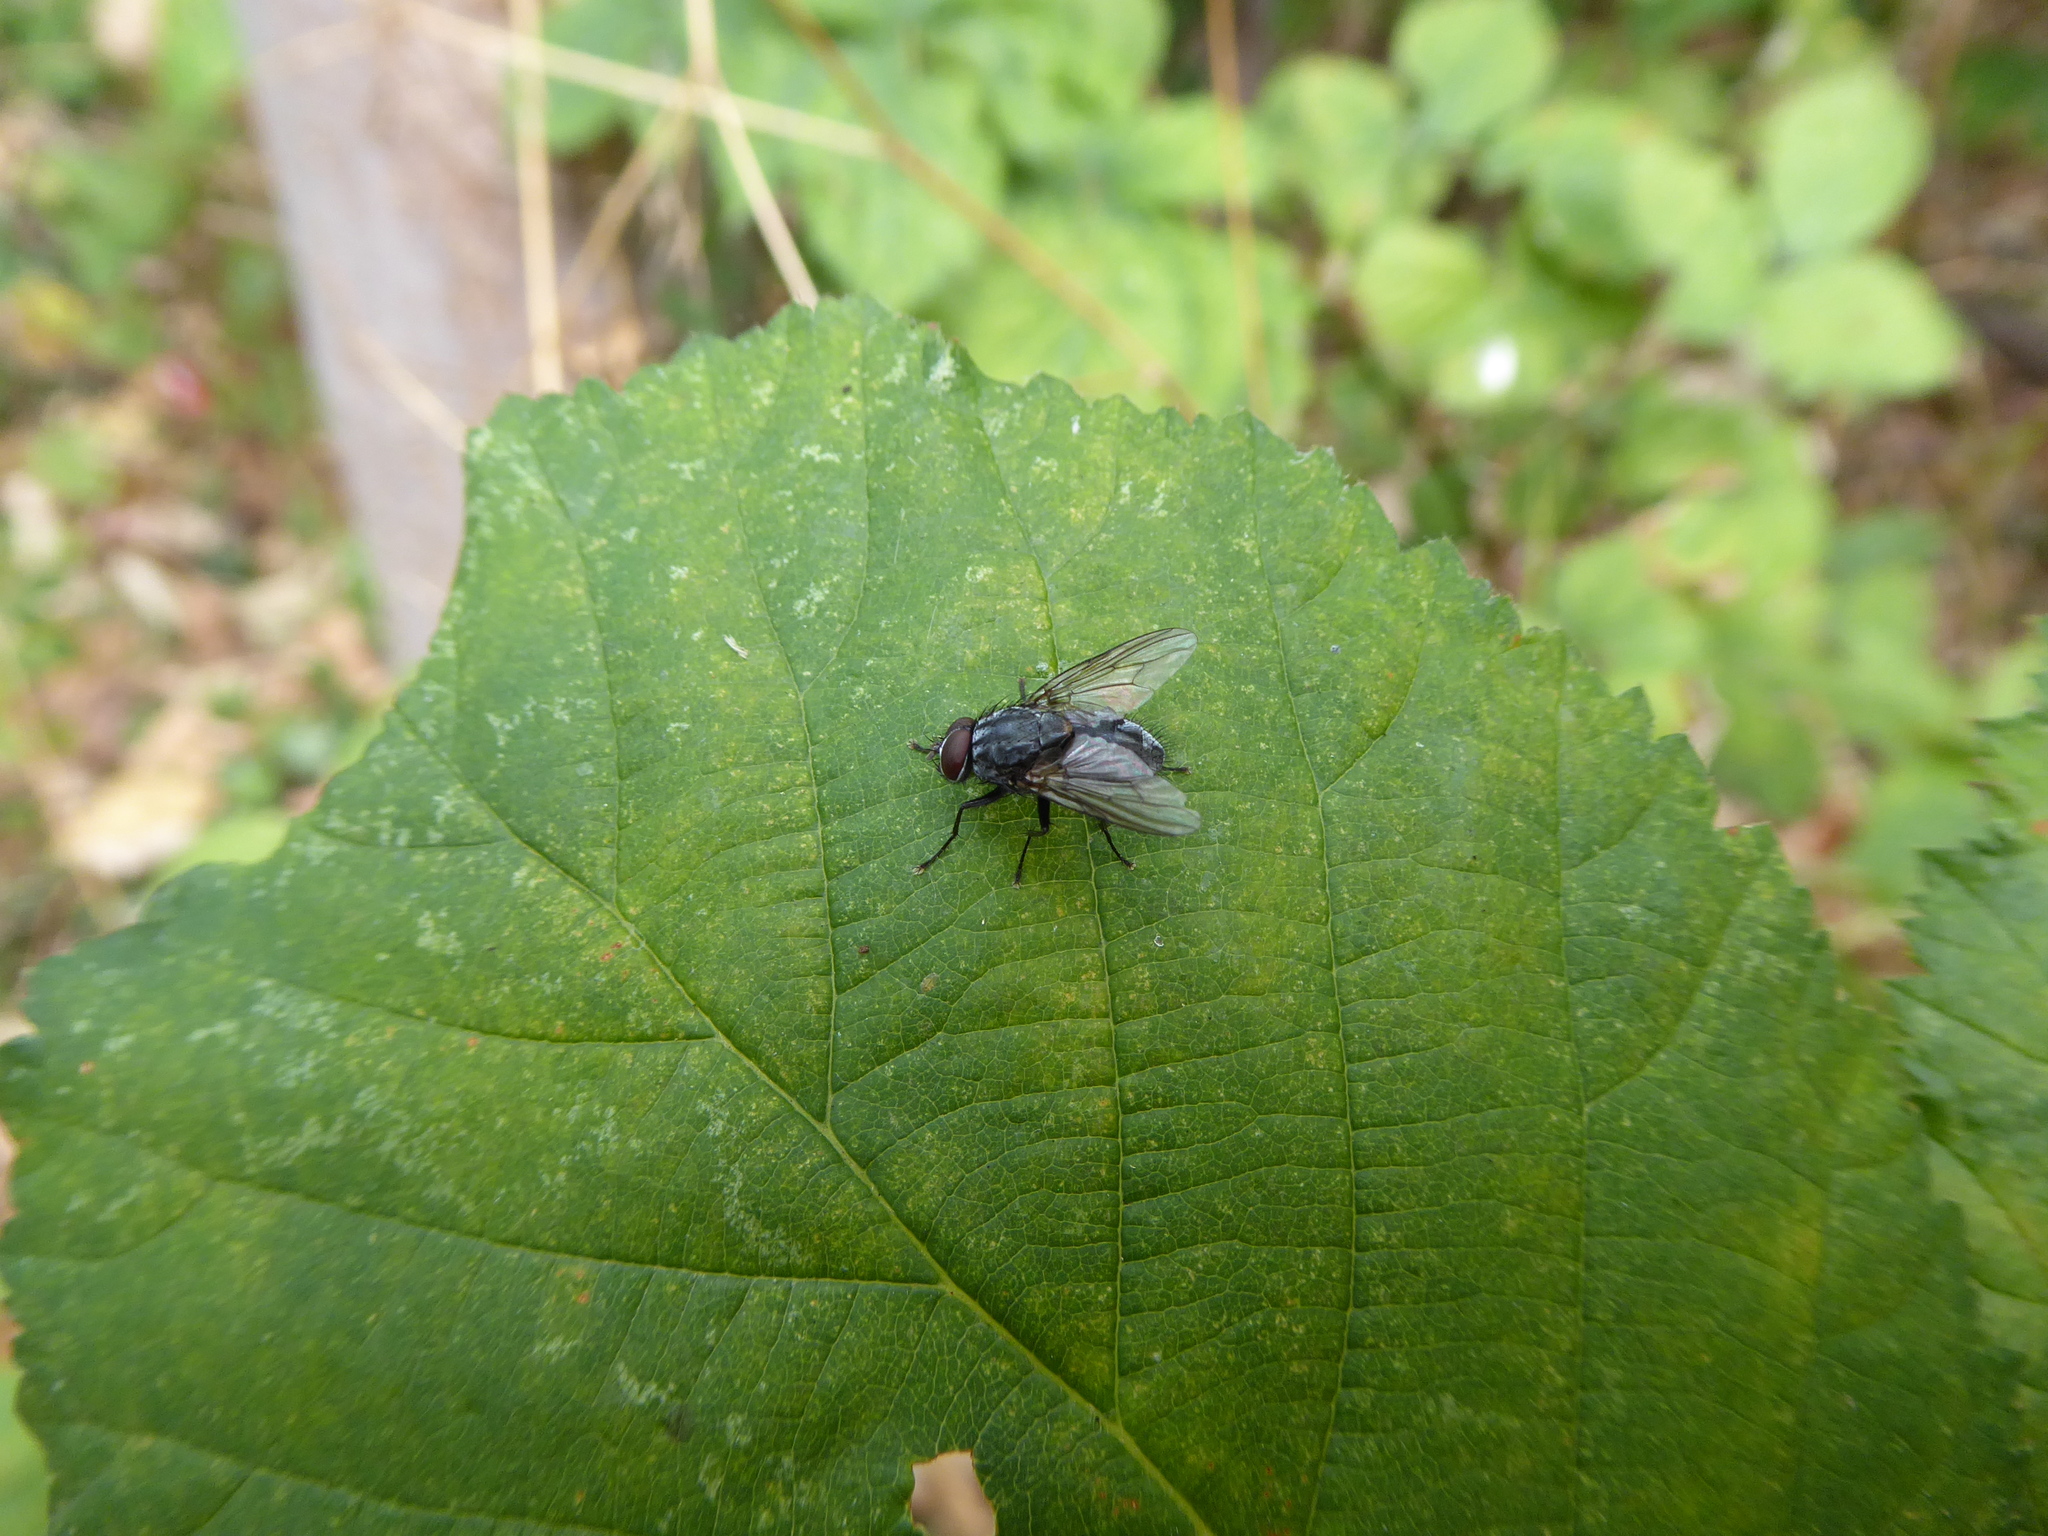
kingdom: Animalia
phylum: Arthropoda
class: Insecta
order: Diptera
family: Muscidae
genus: Muscina
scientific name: Muscina
